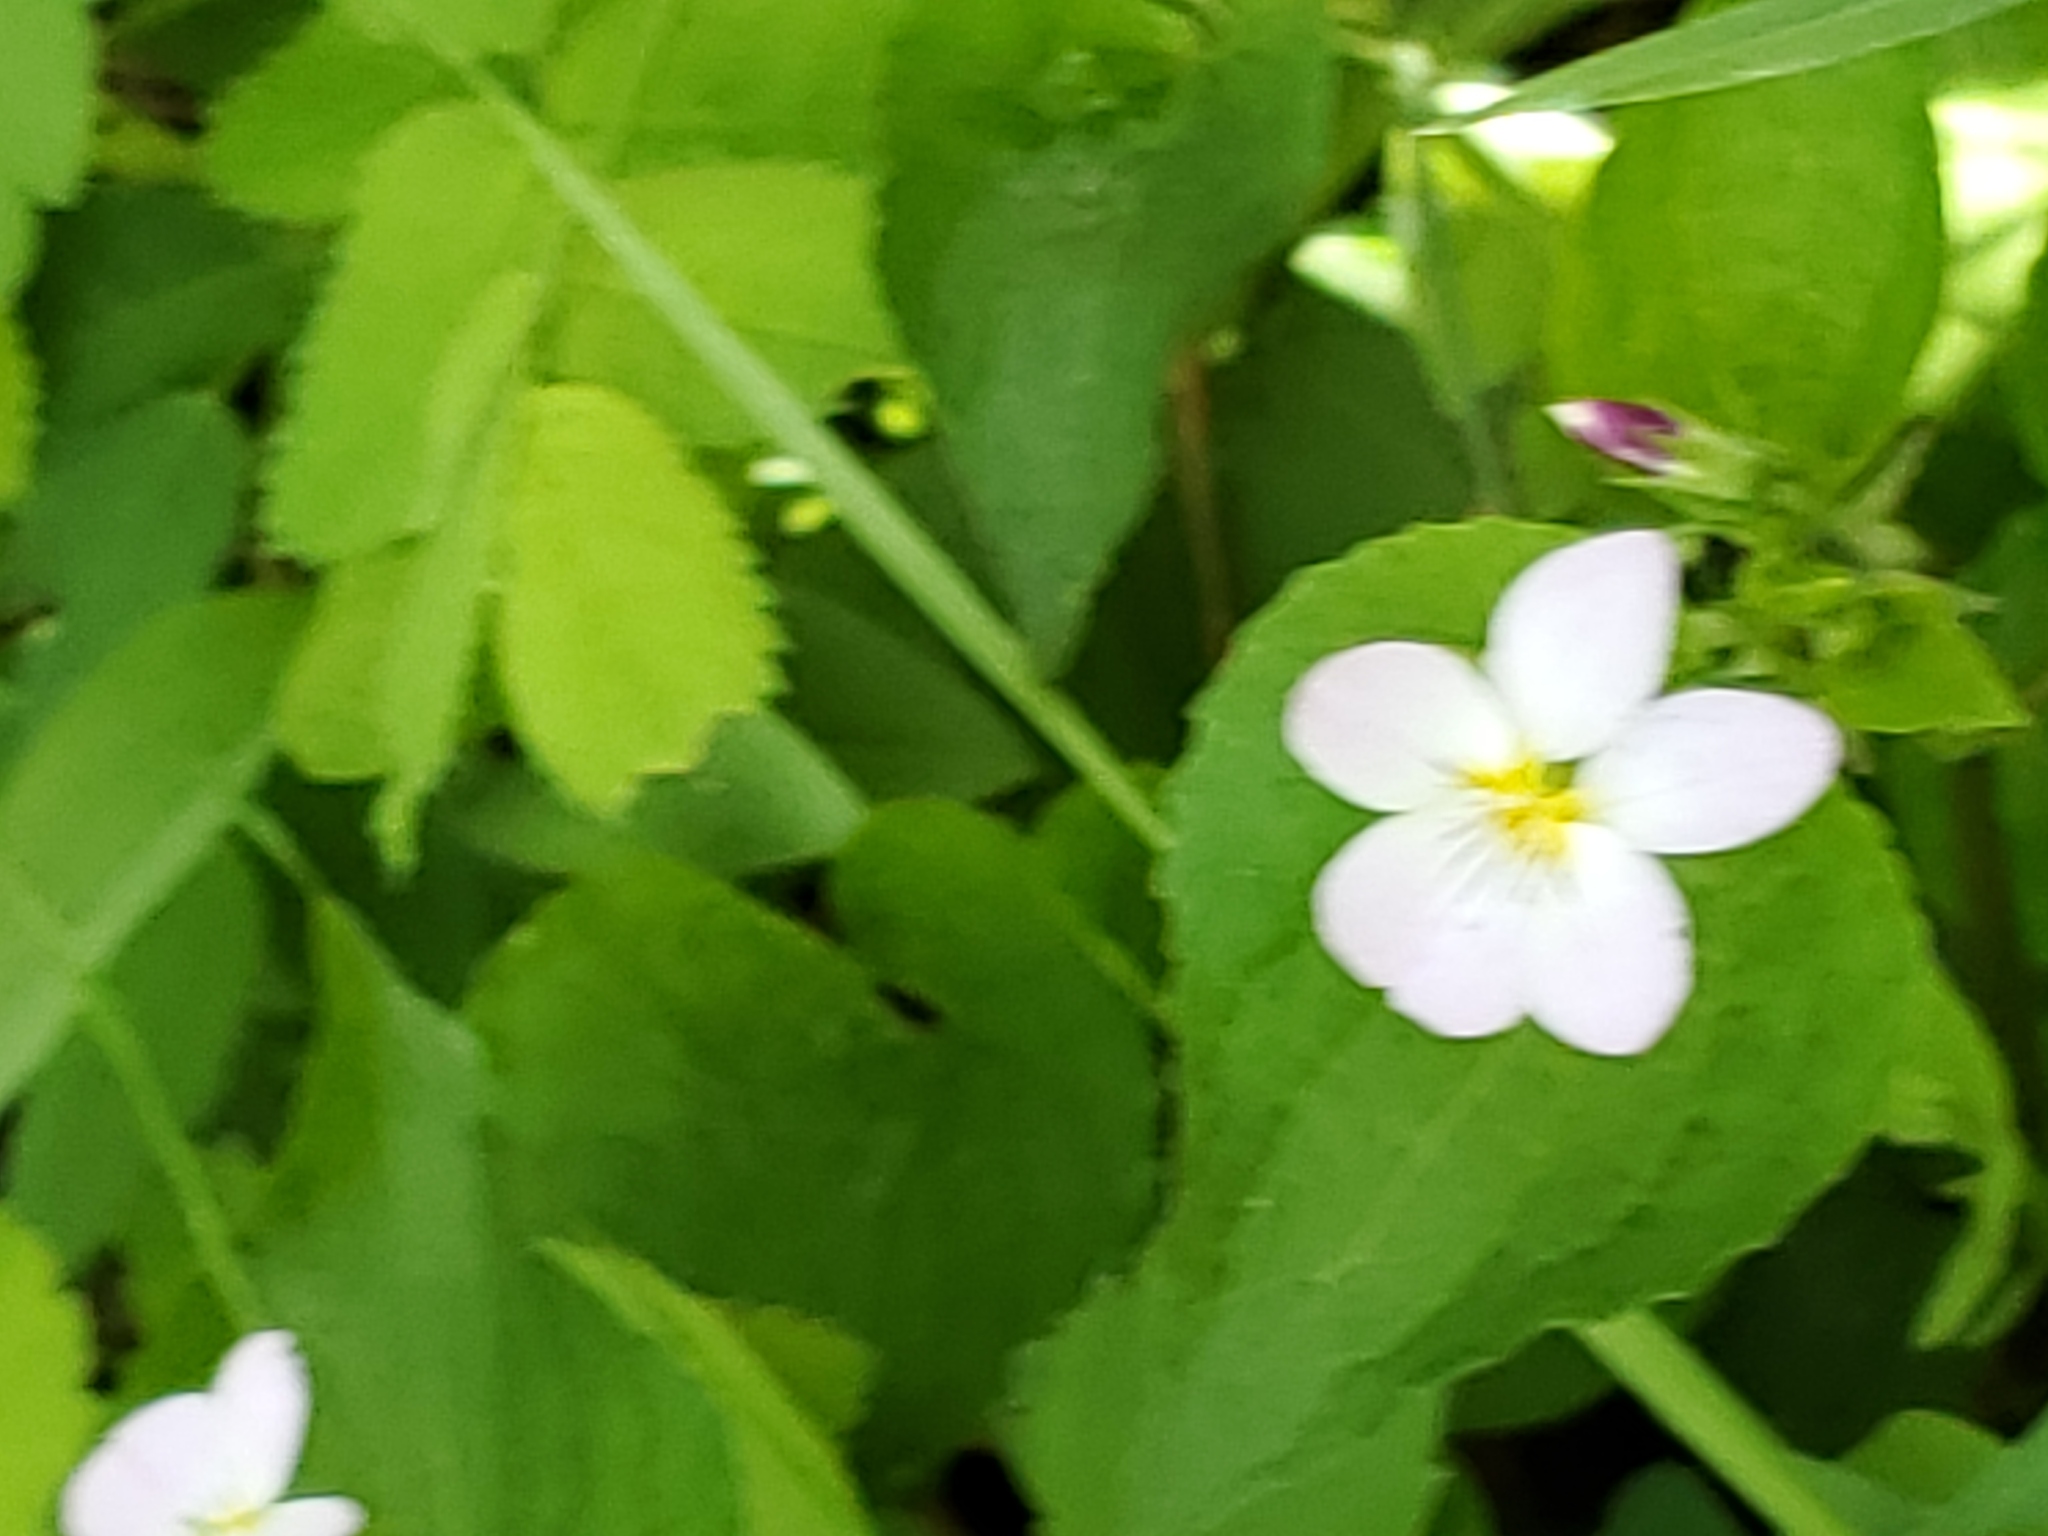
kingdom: Plantae
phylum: Tracheophyta
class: Magnoliopsida
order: Malpighiales
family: Violaceae
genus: Viola
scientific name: Viola canadensis
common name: Canada violet
